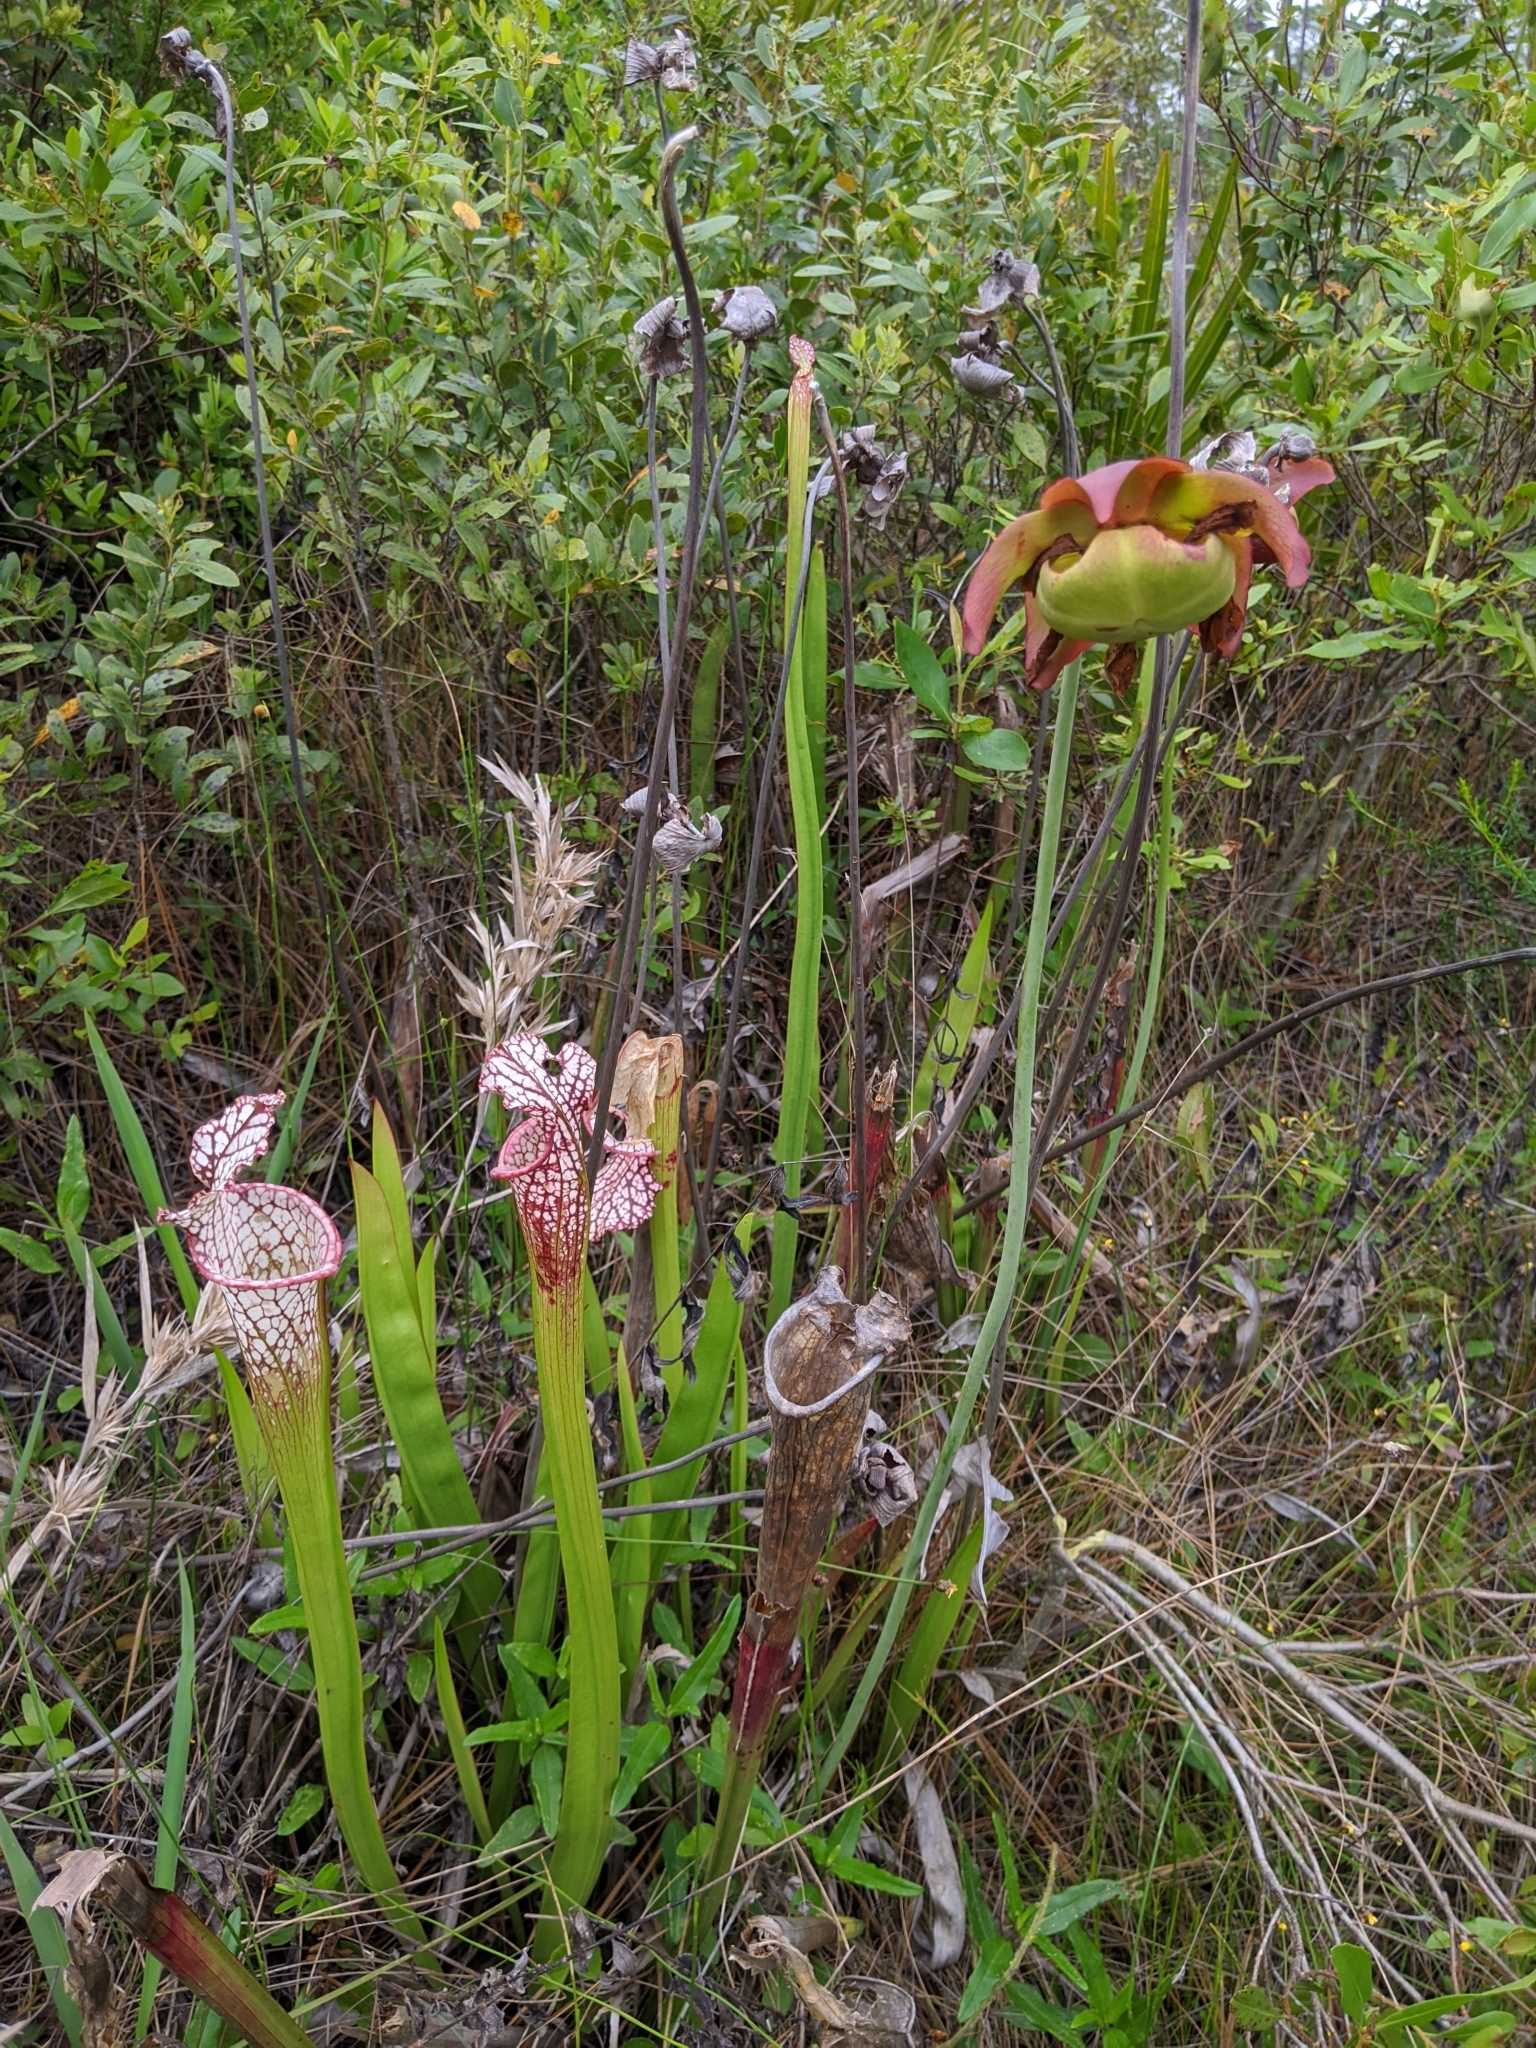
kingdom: Plantae
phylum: Tracheophyta
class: Magnoliopsida
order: Ericales
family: Sarraceniaceae
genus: Sarracenia
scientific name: Sarracenia leucophylla
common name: Purple trumpetleaf
